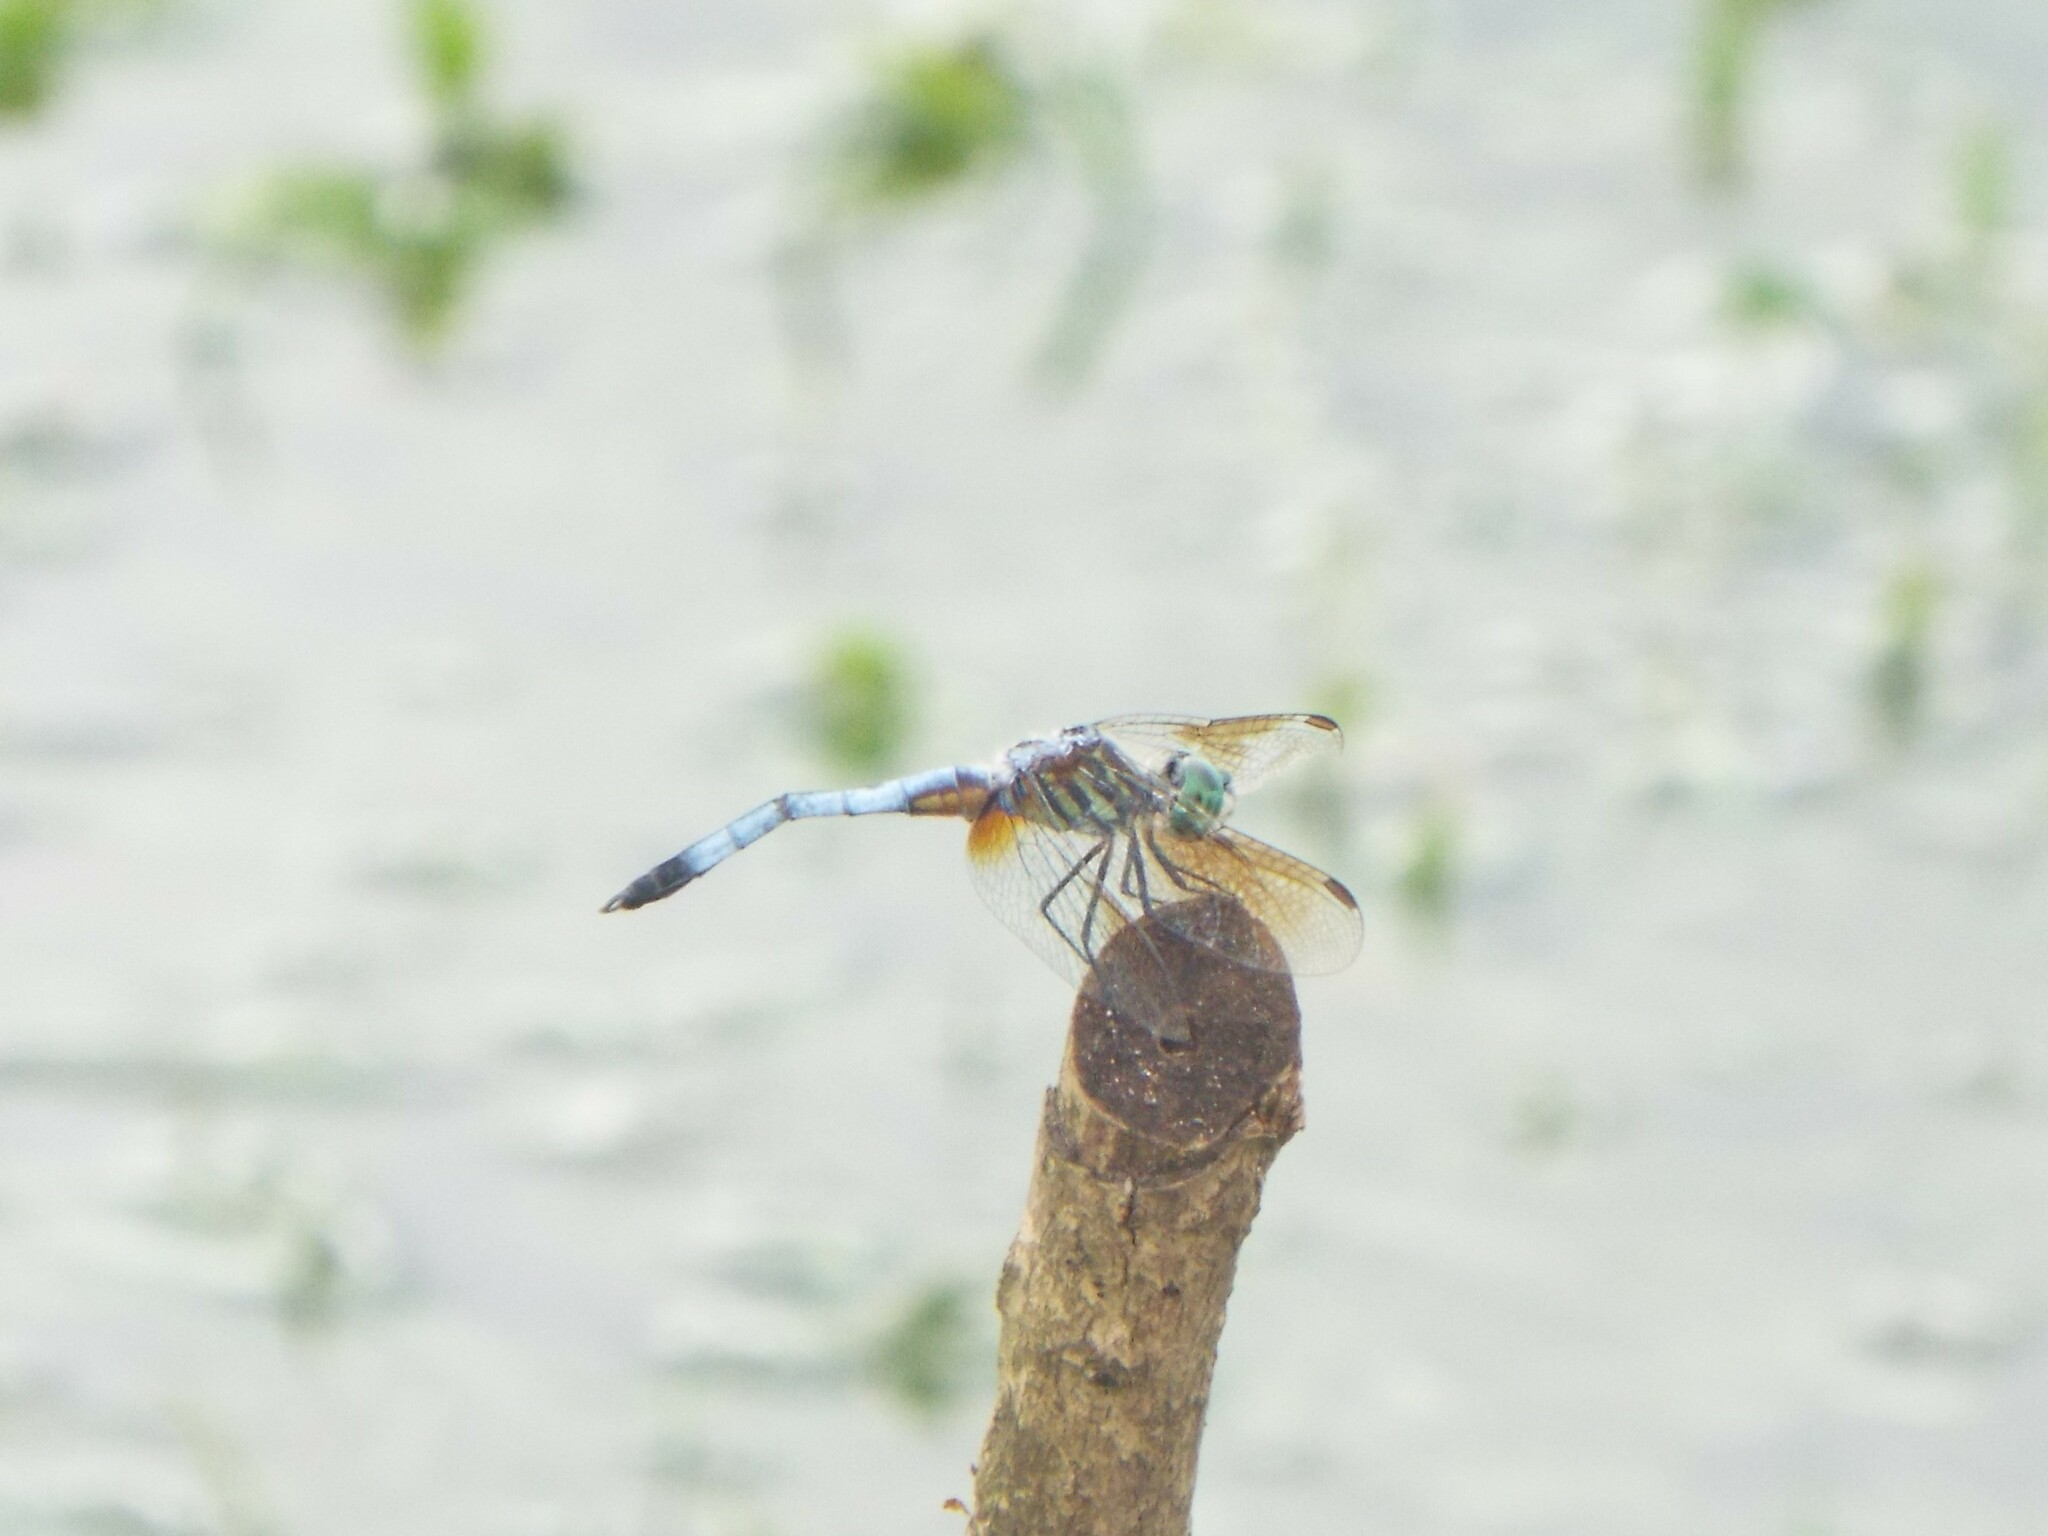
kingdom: Animalia
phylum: Arthropoda
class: Insecta
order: Odonata
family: Libellulidae
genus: Pachydiplax
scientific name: Pachydiplax longipennis
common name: Blue dasher
